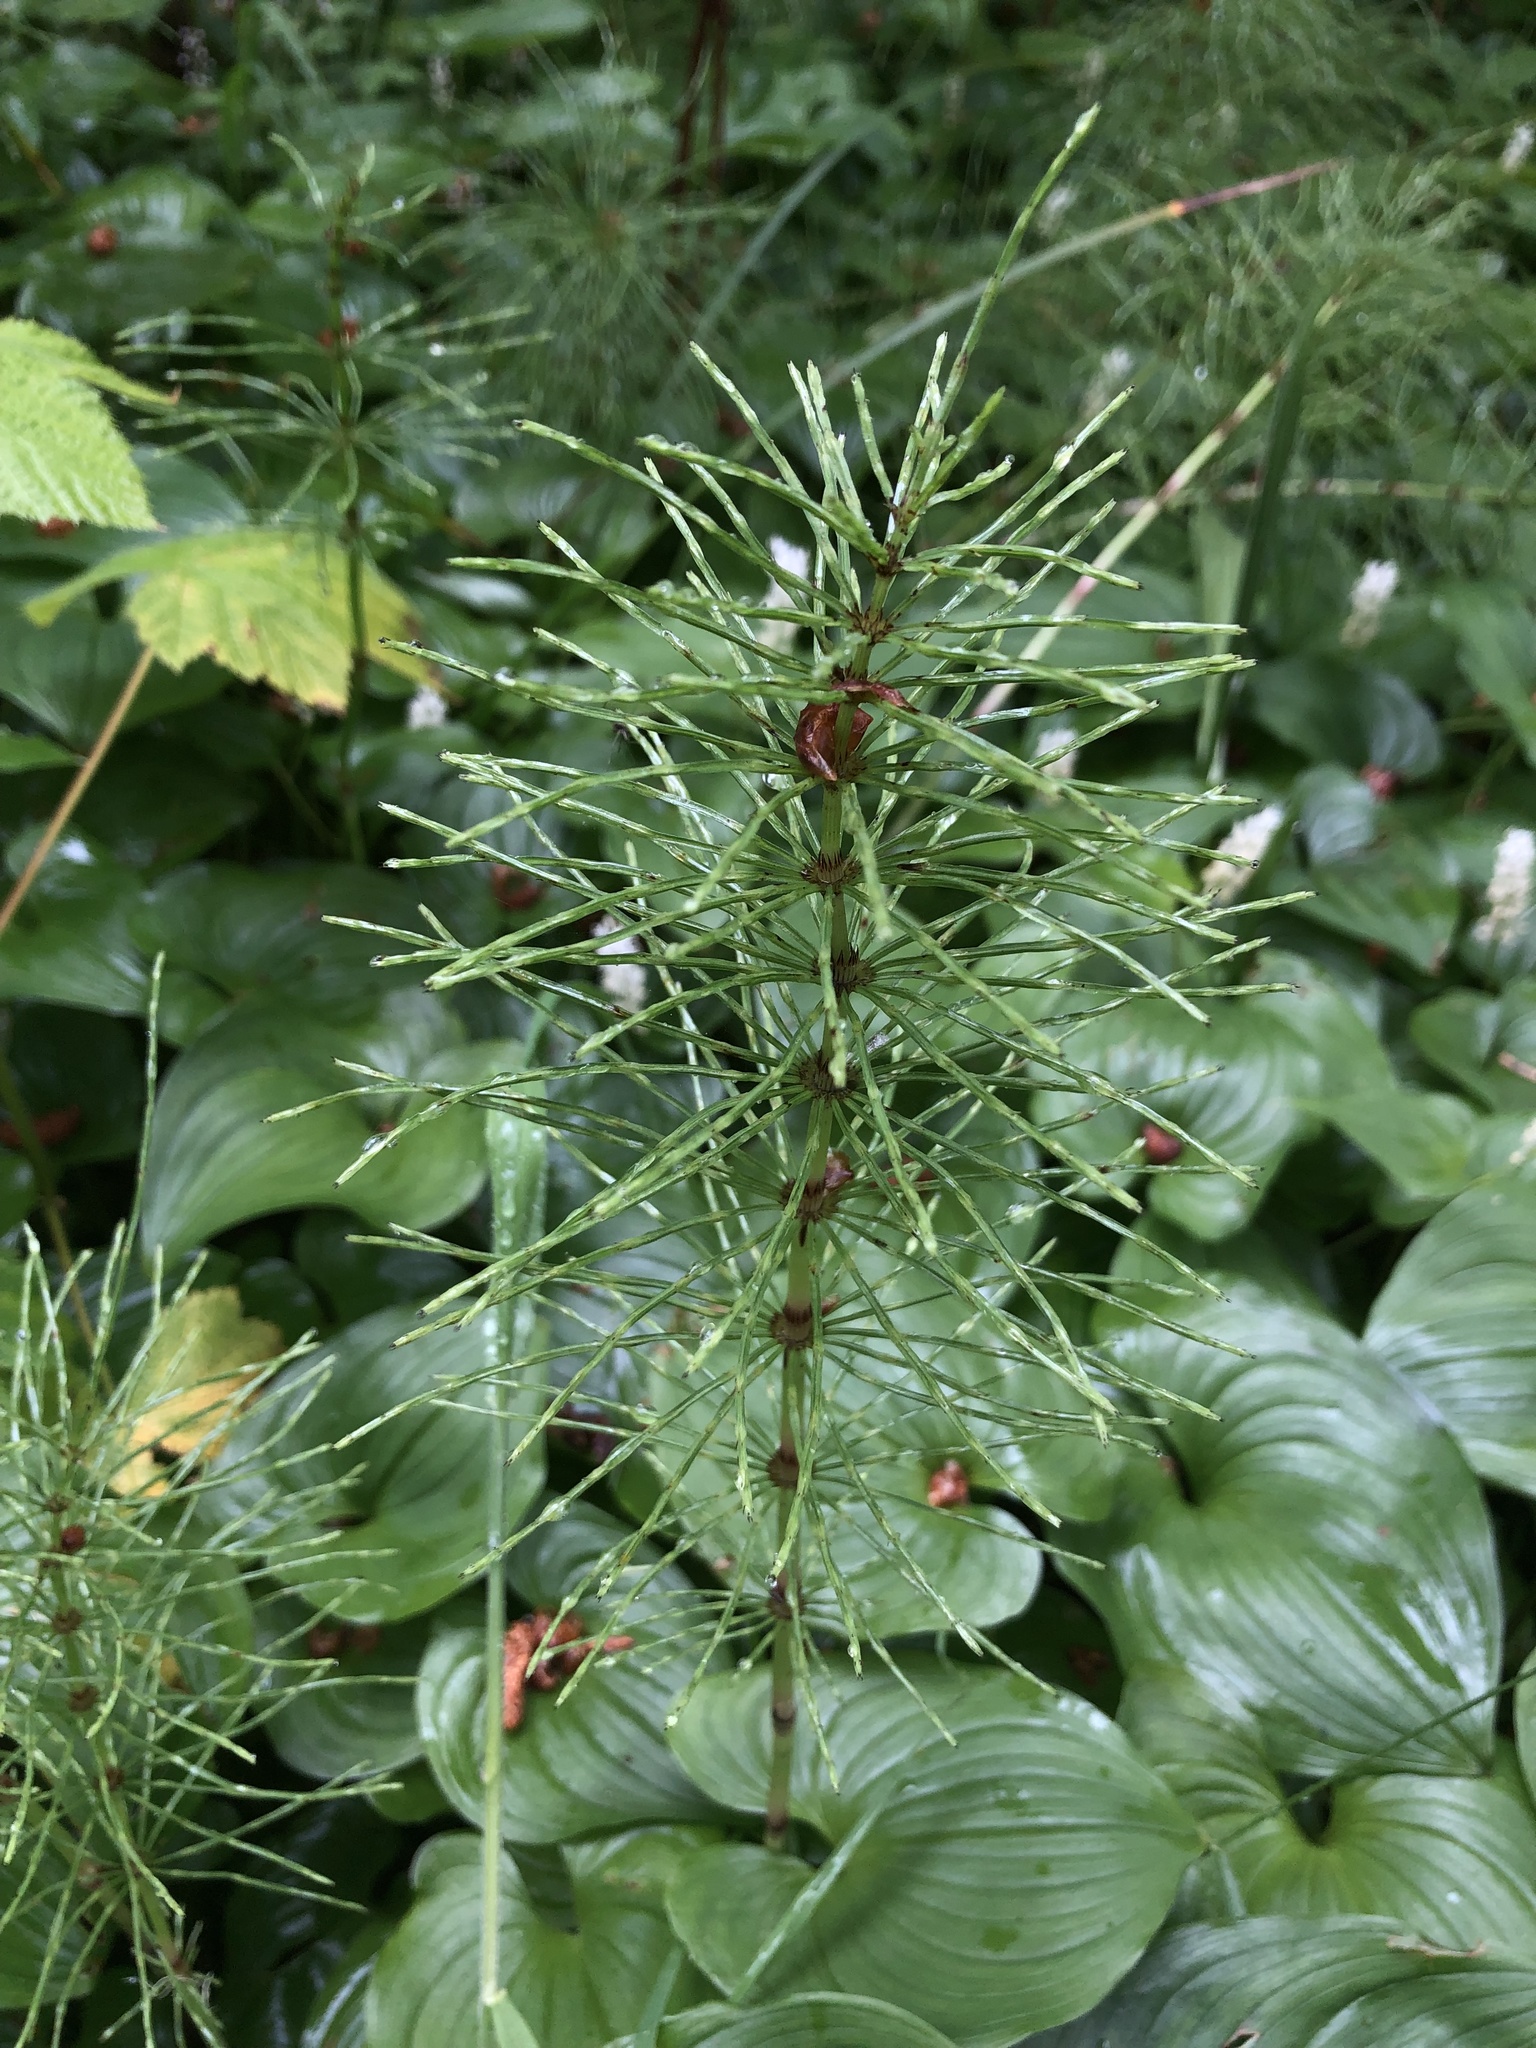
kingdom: Plantae
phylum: Tracheophyta
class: Polypodiopsida
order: Equisetales
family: Equisetaceae
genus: Equisetum
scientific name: Equisetum telmateia
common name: Great horsetail
